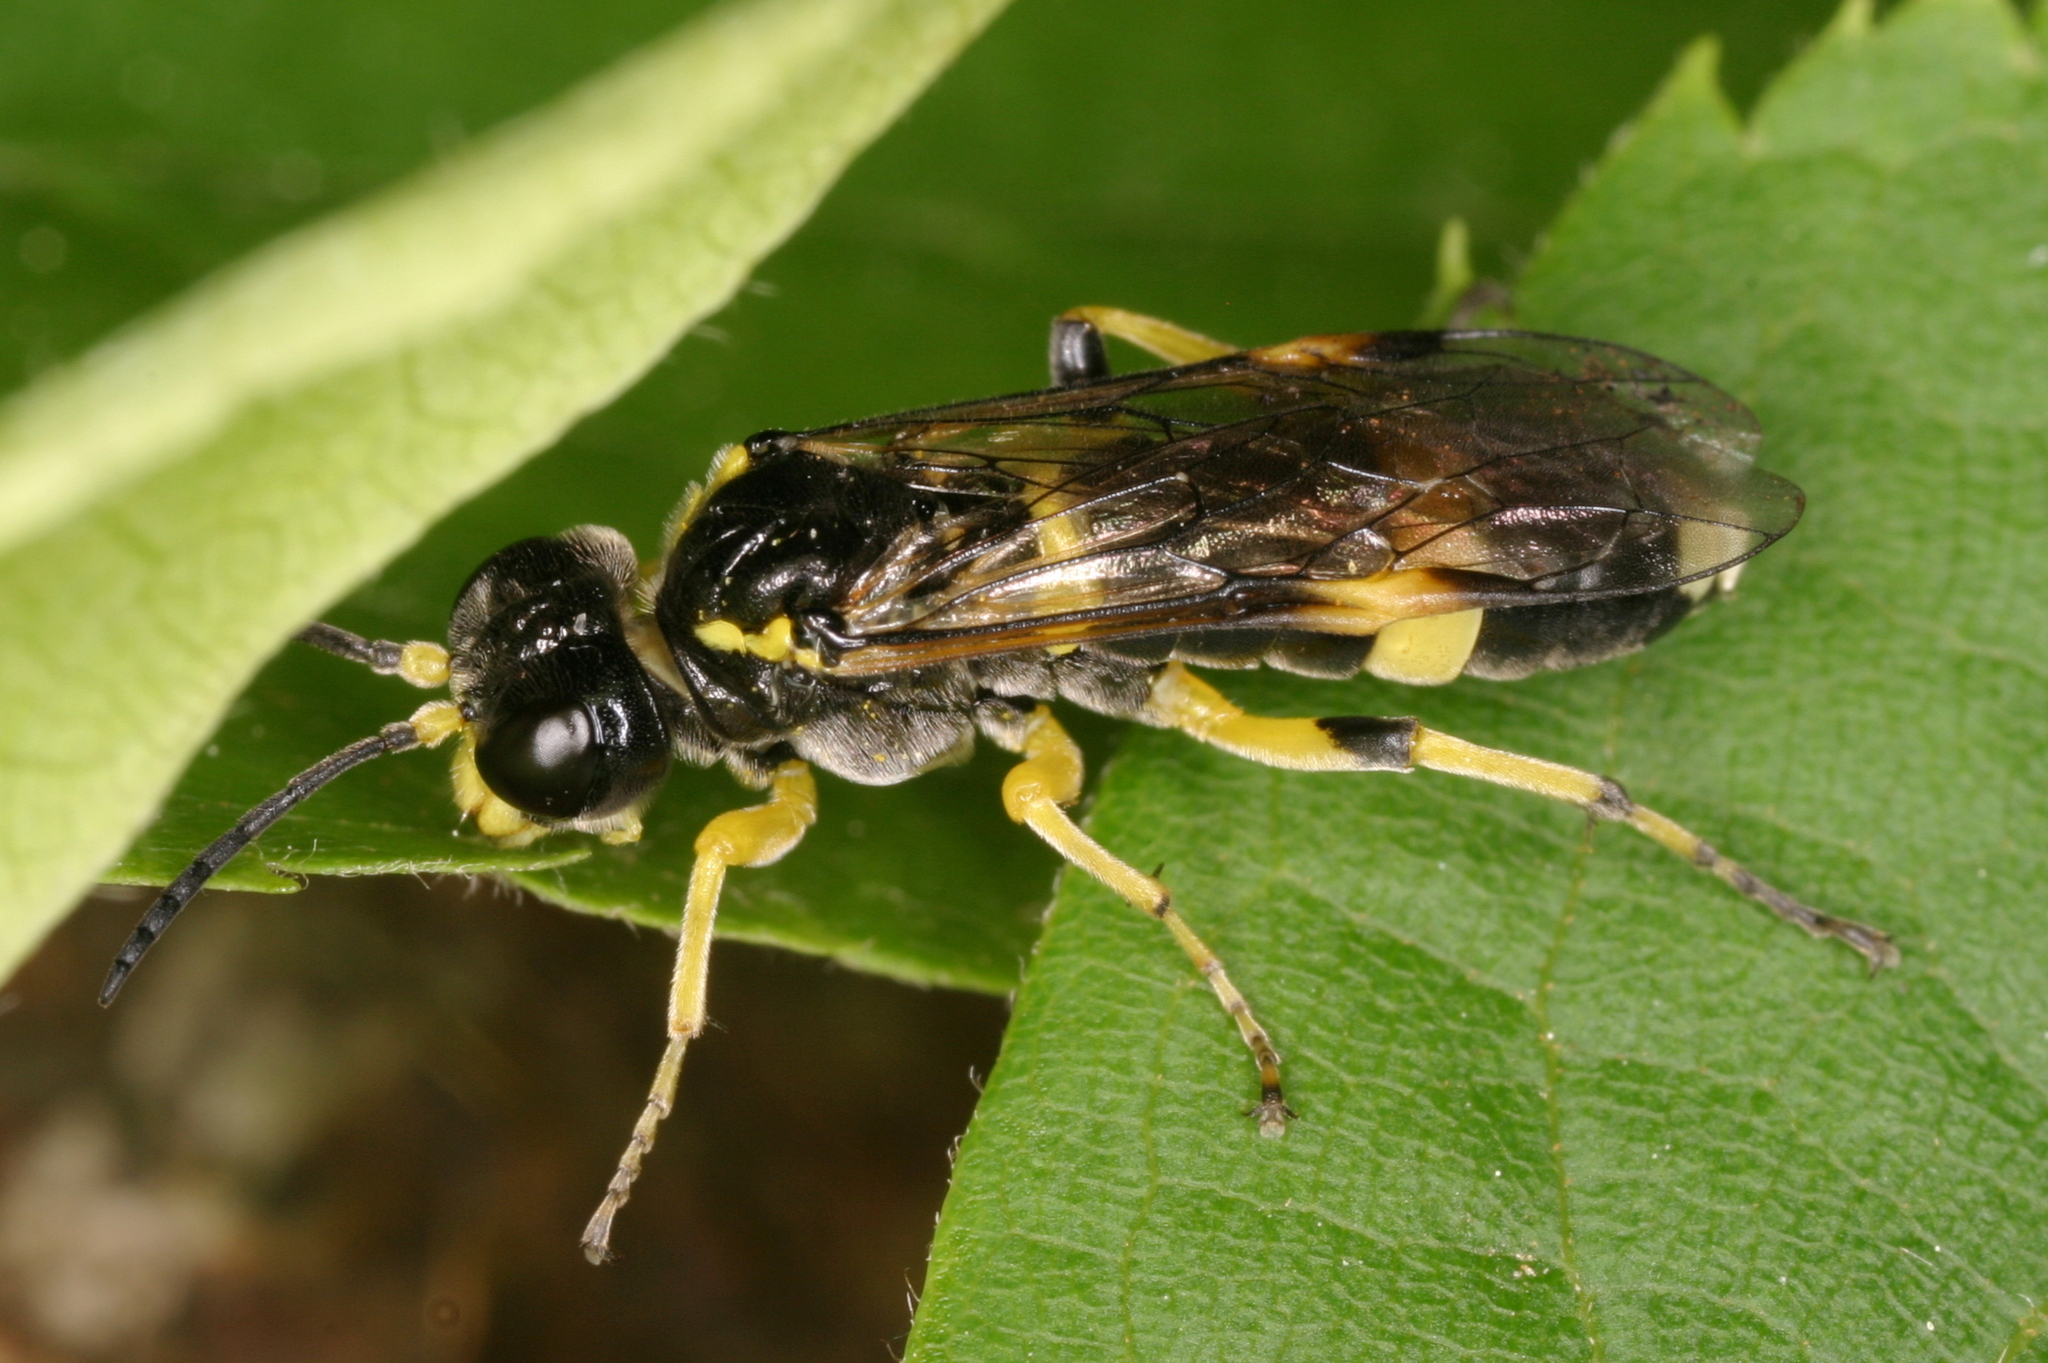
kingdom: Animalia
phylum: Arthropoda
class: Insecta
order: Hymenoptera
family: Tenthredinidae
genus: Tenthredo
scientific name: Tenthredo zonula
